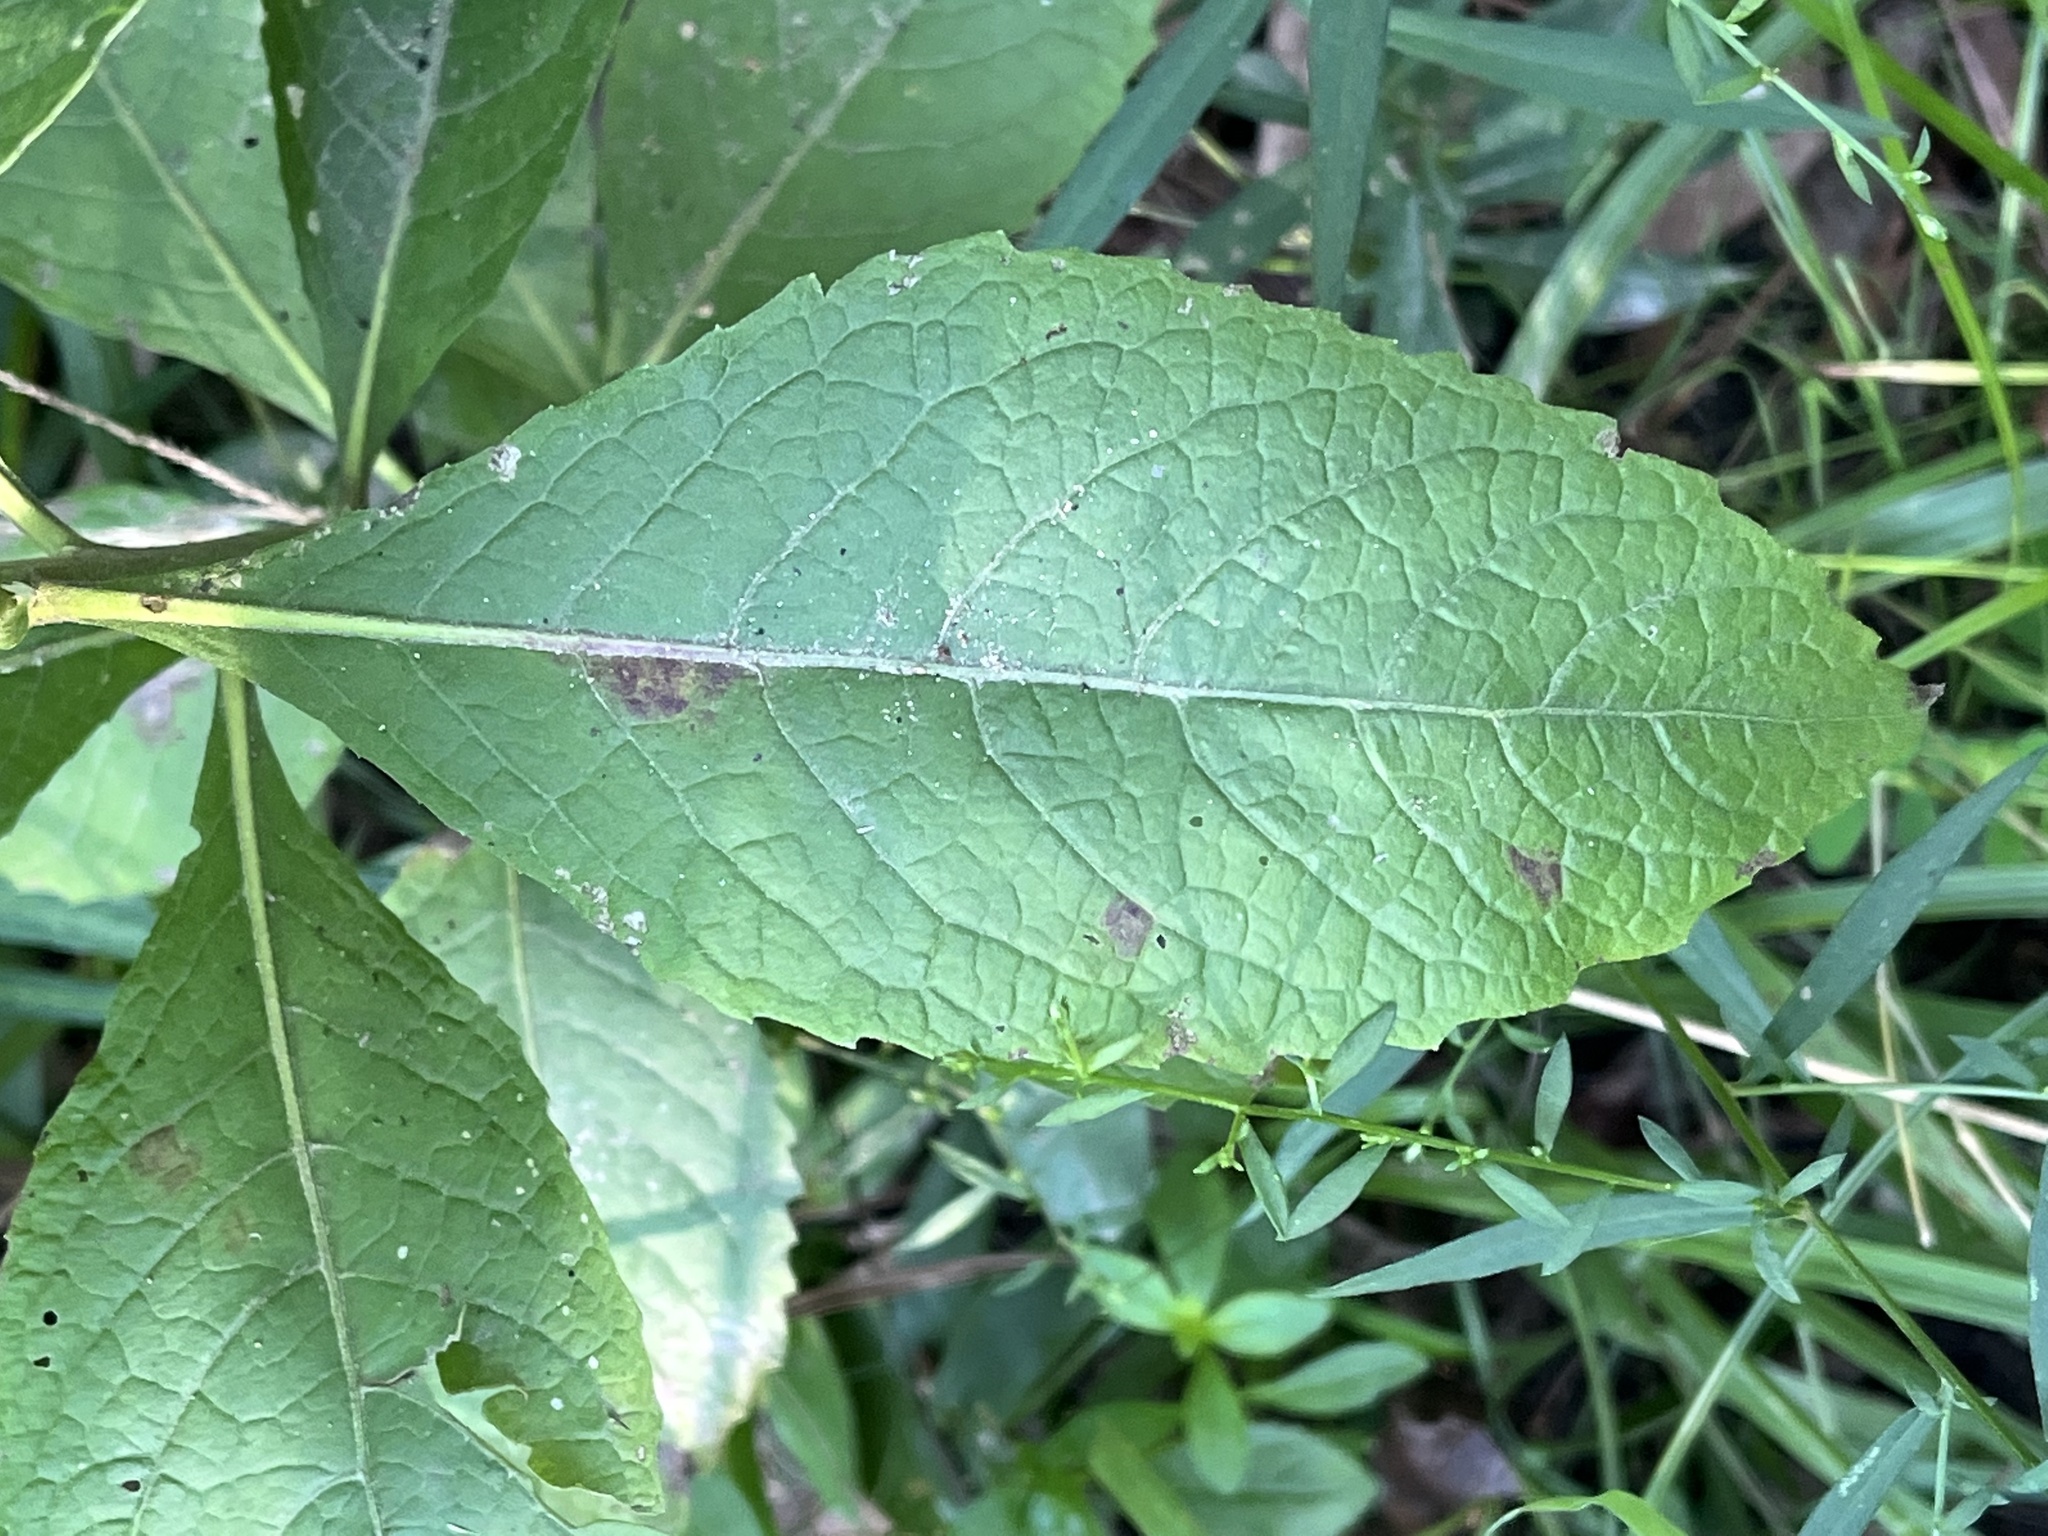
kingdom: Plantae
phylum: Tracheophyta
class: Magnoliopsida
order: Asterales
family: Asteraceae
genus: Pluchea
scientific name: Pluchea camphorata
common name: Camphor pluchea
